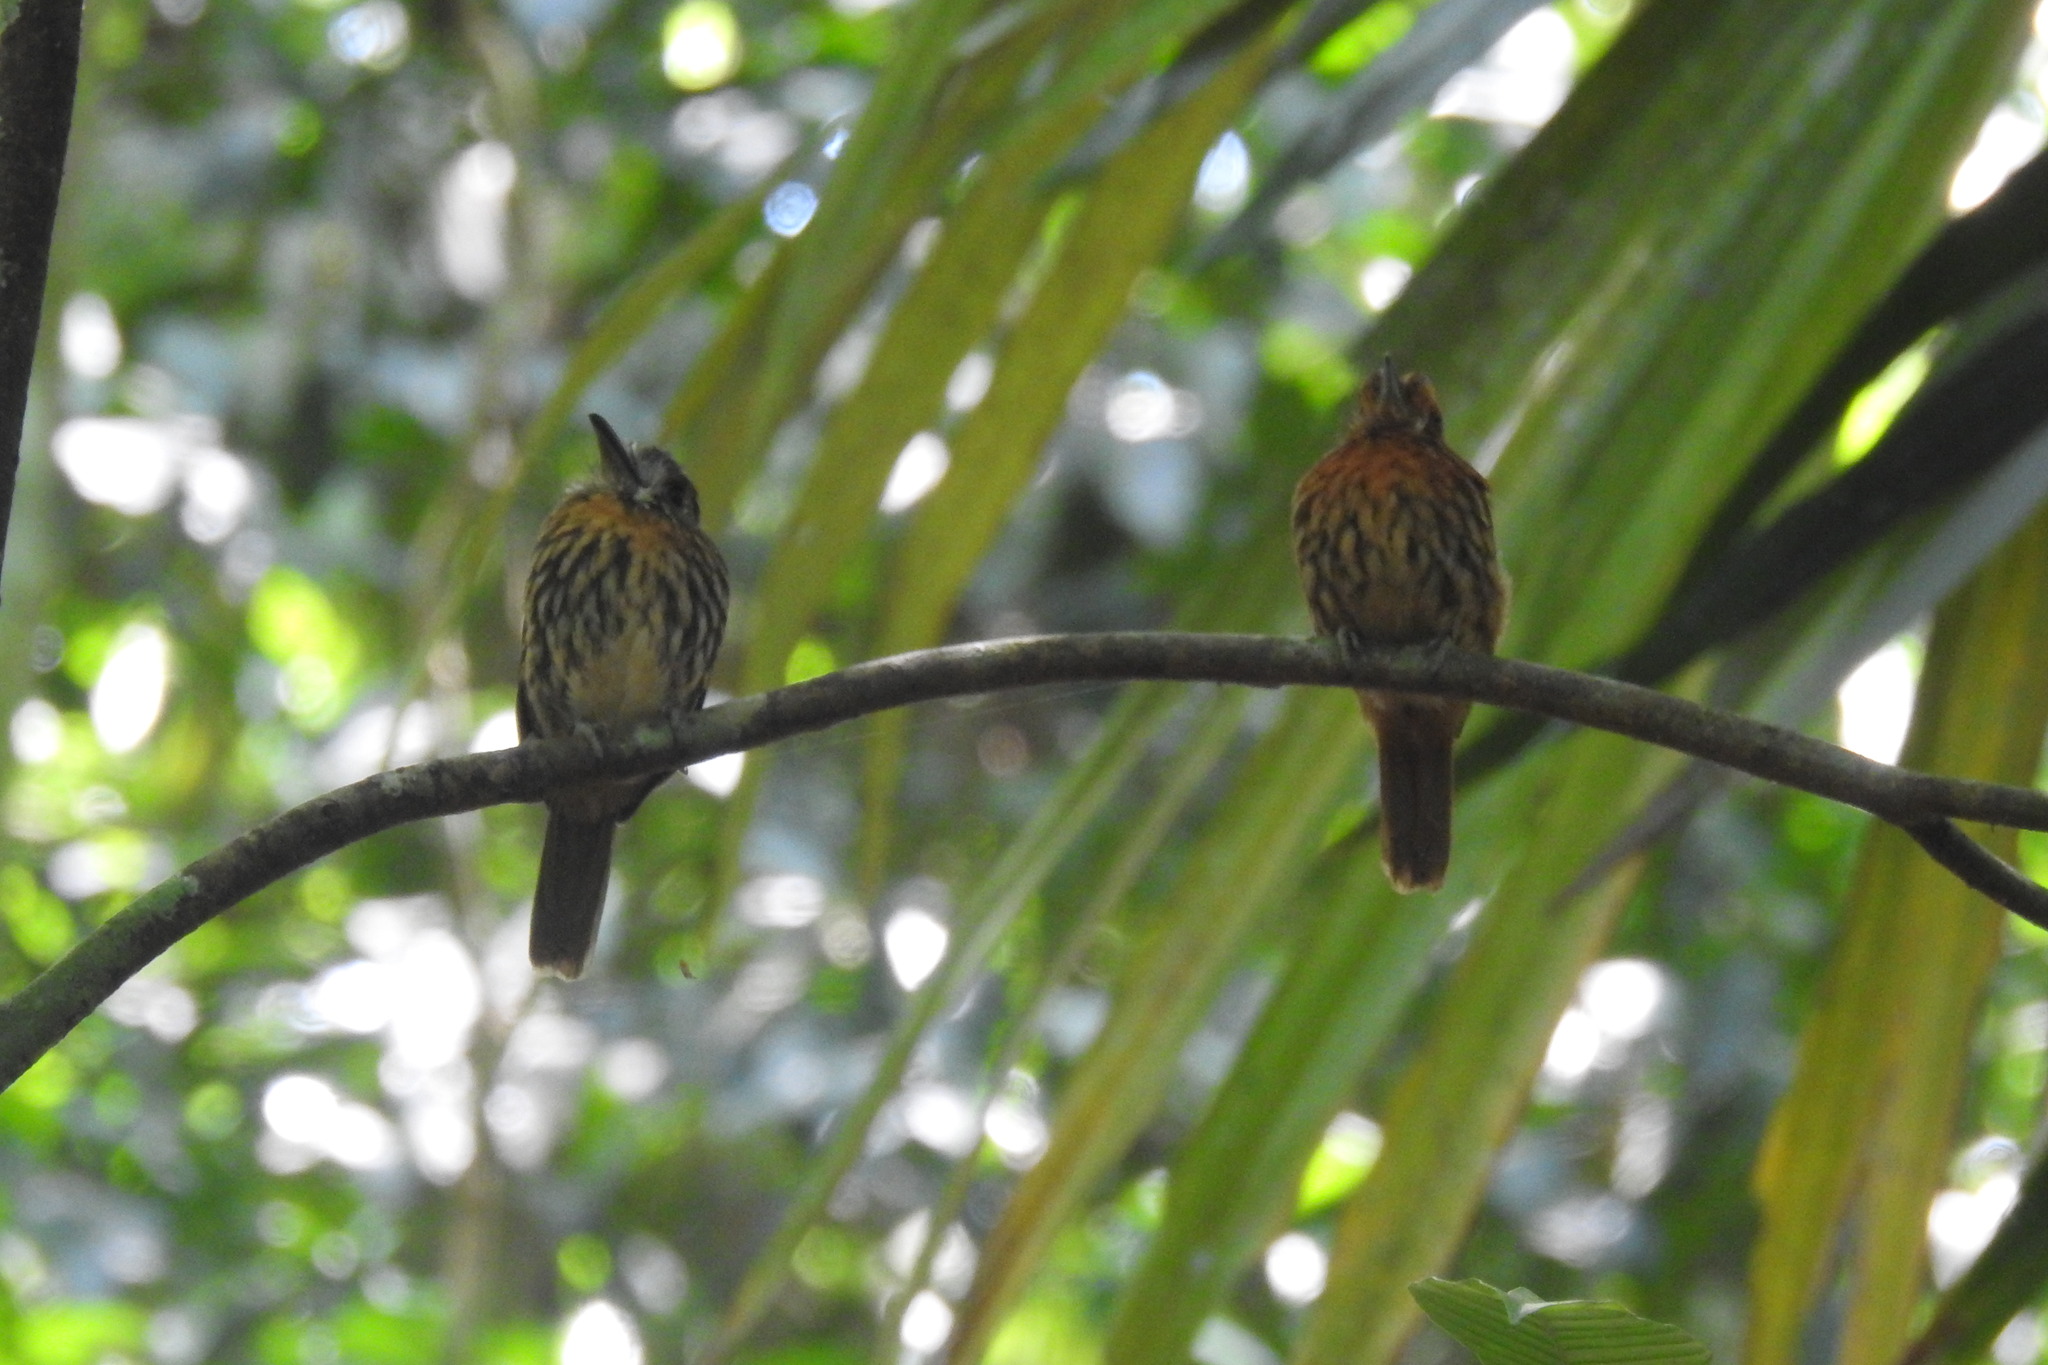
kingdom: Animalia
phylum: Chordata
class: Aves
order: Piciformes
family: Bucconidae
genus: Malacoptila
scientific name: Malacoptila panamensis
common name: White-whiskered puffbird
